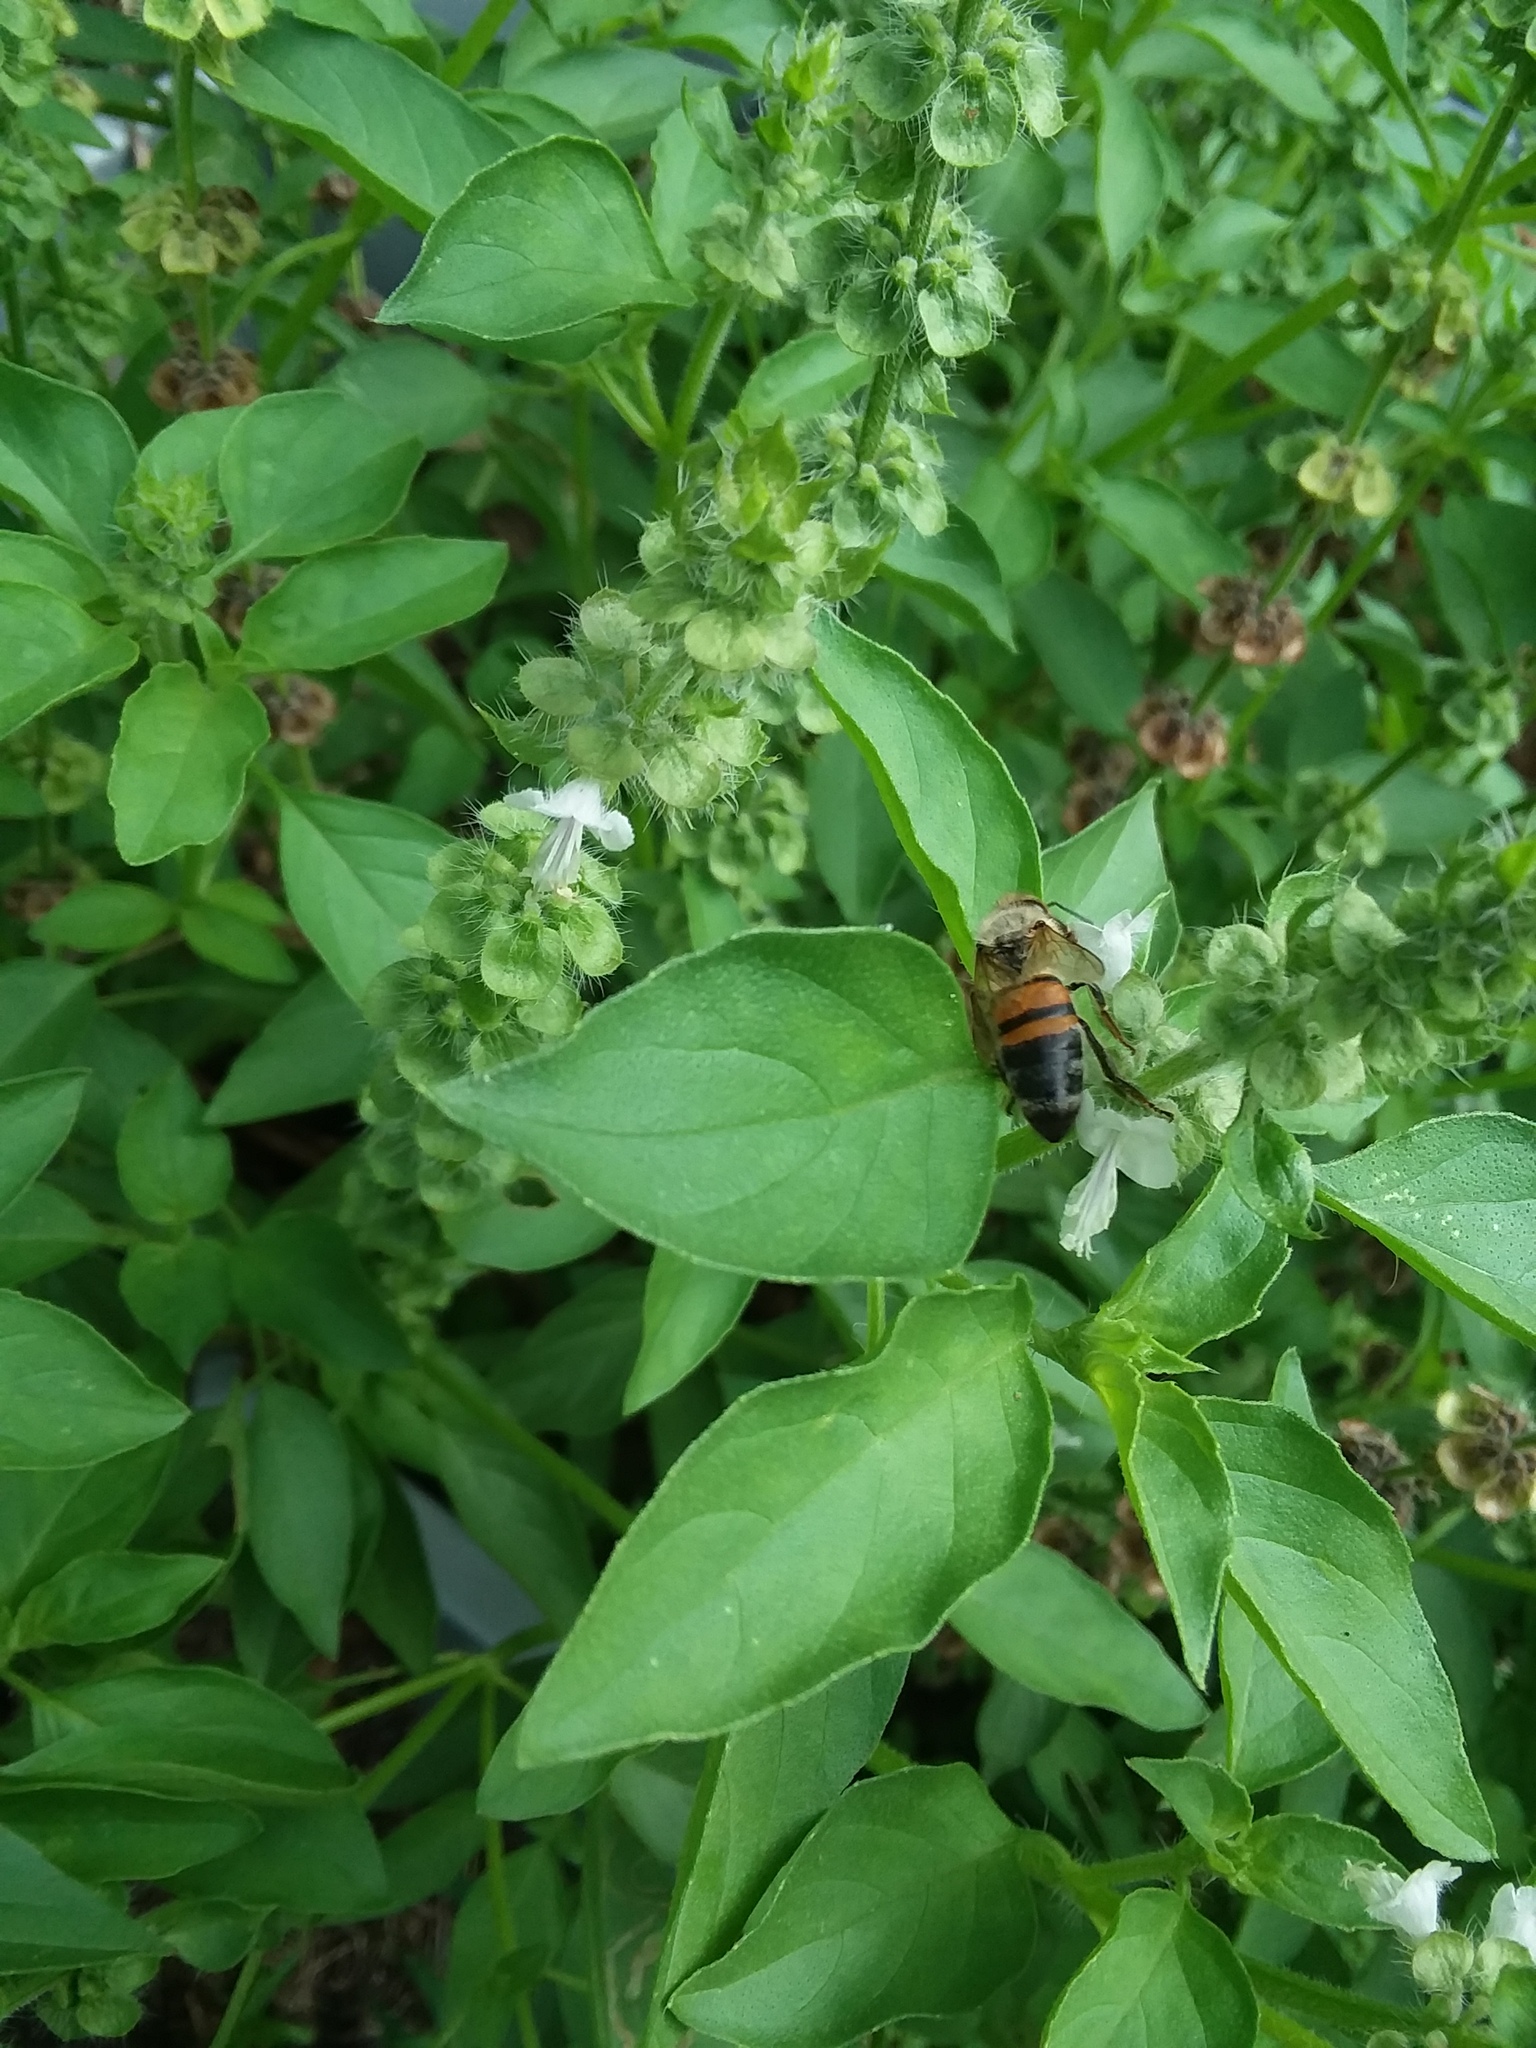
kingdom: Animalia
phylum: Arthropoda
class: Insecta
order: Hymenoptera
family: Apidae
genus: Apis
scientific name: Apis mellifera
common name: Honey bee
